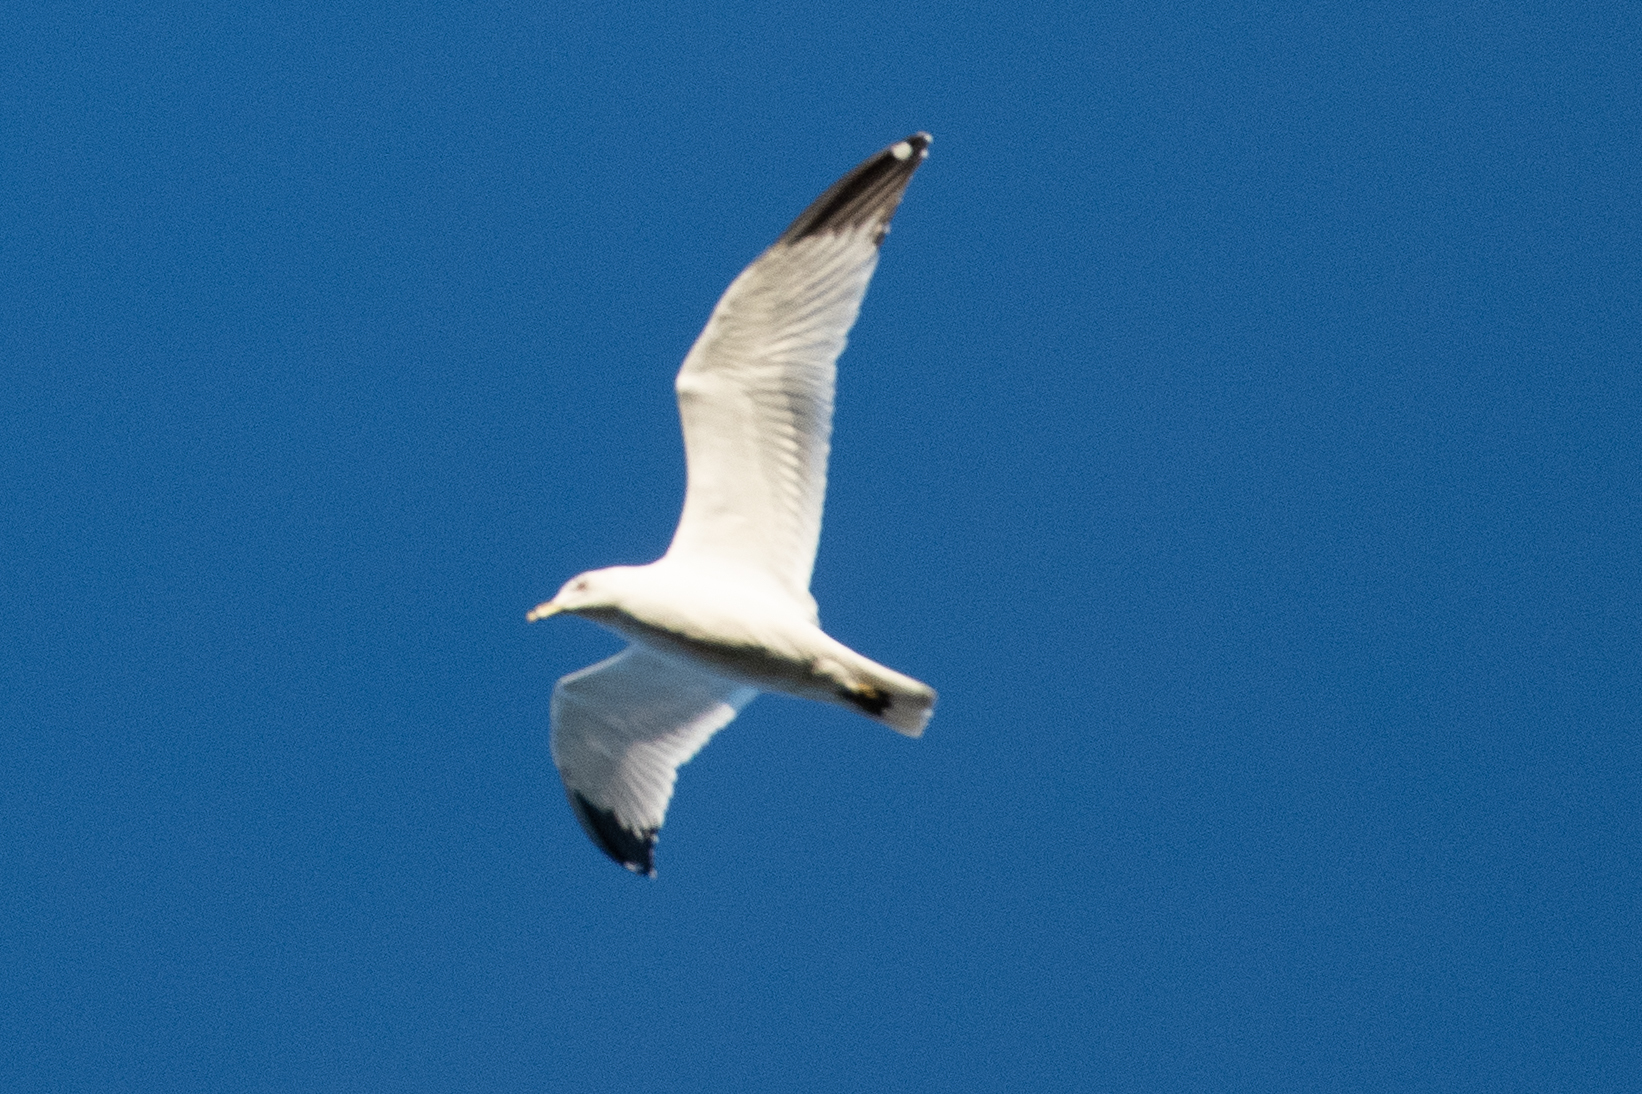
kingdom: Animalia
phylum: Chordata
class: Aves
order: Charadriiformes
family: Laridae
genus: Larus
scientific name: Larus delawarensis
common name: Ring-billed gull
